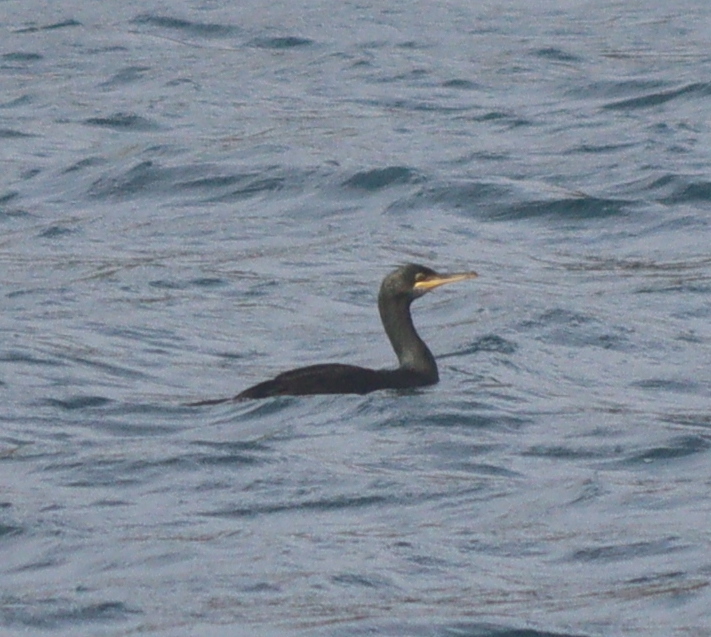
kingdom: Animalia
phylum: Chordata
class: Aves
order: Suliformes
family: Phalacrocoracidae
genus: Phalacrocorax
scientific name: Phalacrocorax aristotelis
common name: European shag
